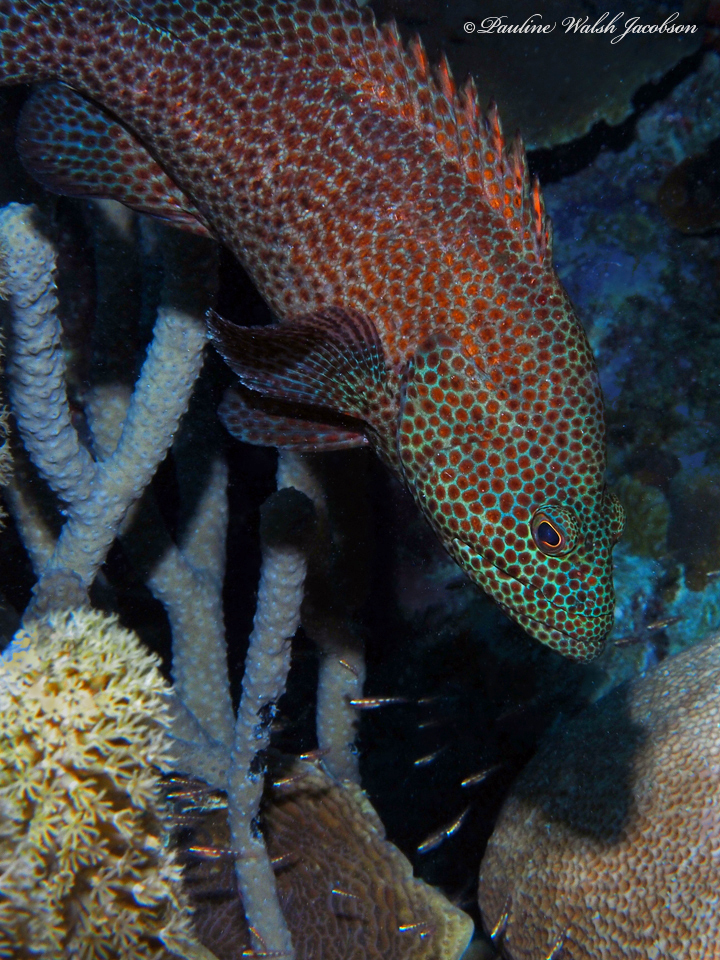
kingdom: Animalia
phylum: Chordata
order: Perciformes
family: Serranidae
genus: Cephalopholis
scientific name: Cephalopholis cruentata
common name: Graysby
